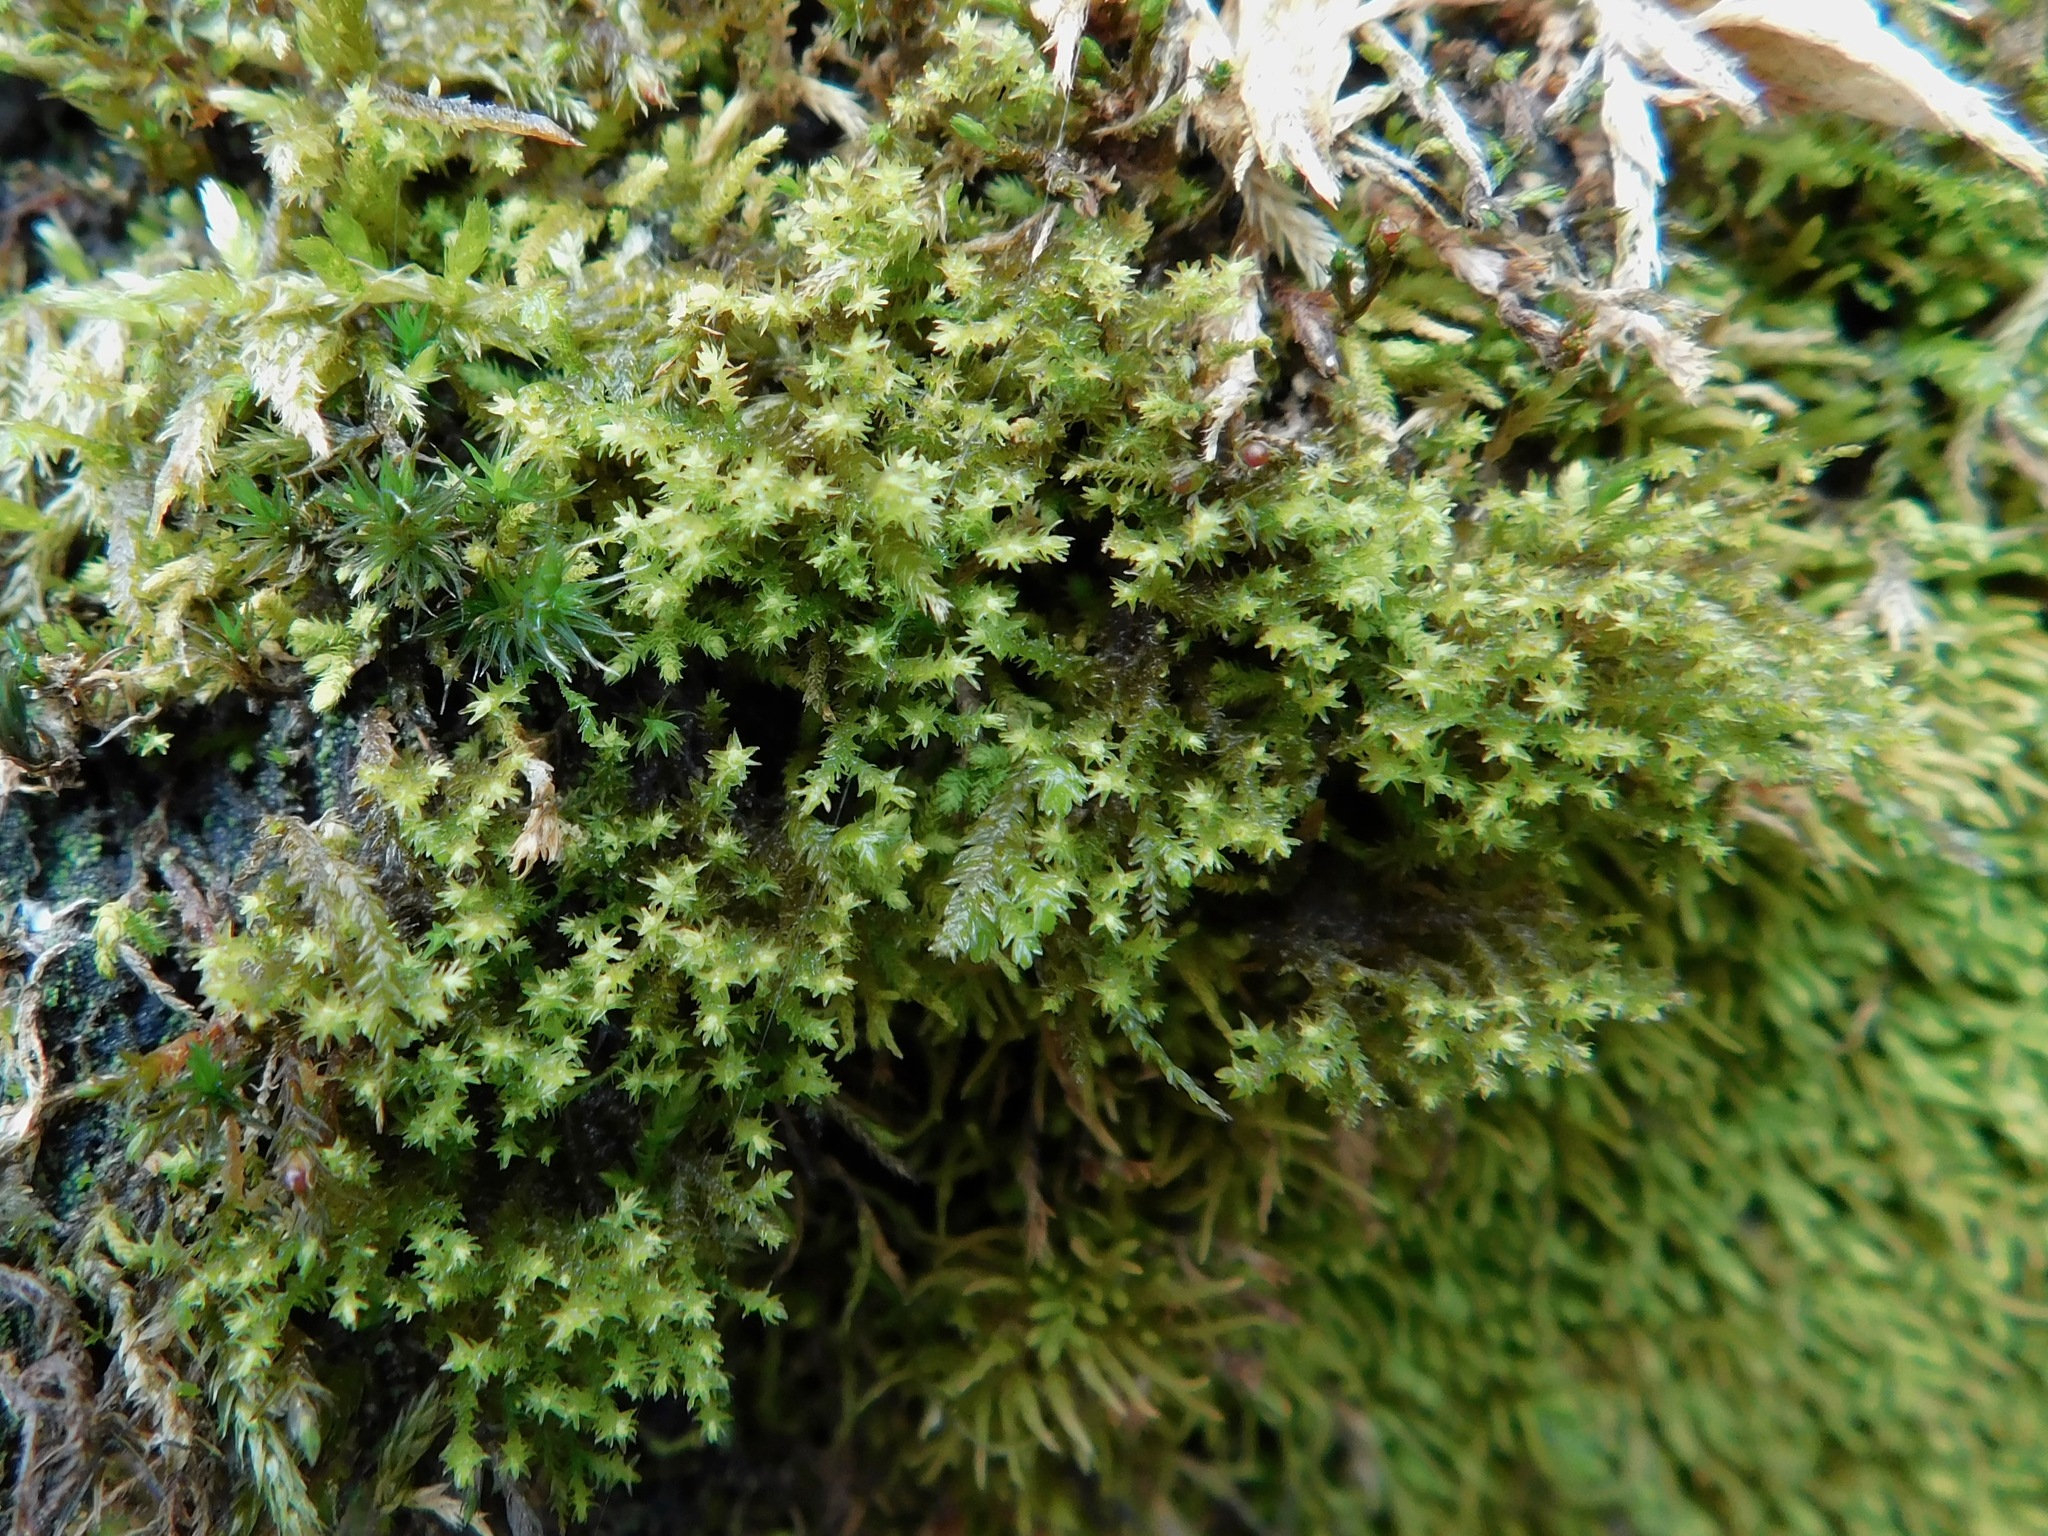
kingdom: Plantae
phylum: Bryophyta
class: Bryopsida
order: Bryales
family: Mniaceae
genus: Pohlia
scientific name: Pohlia cruda
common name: Opal nodding moss
